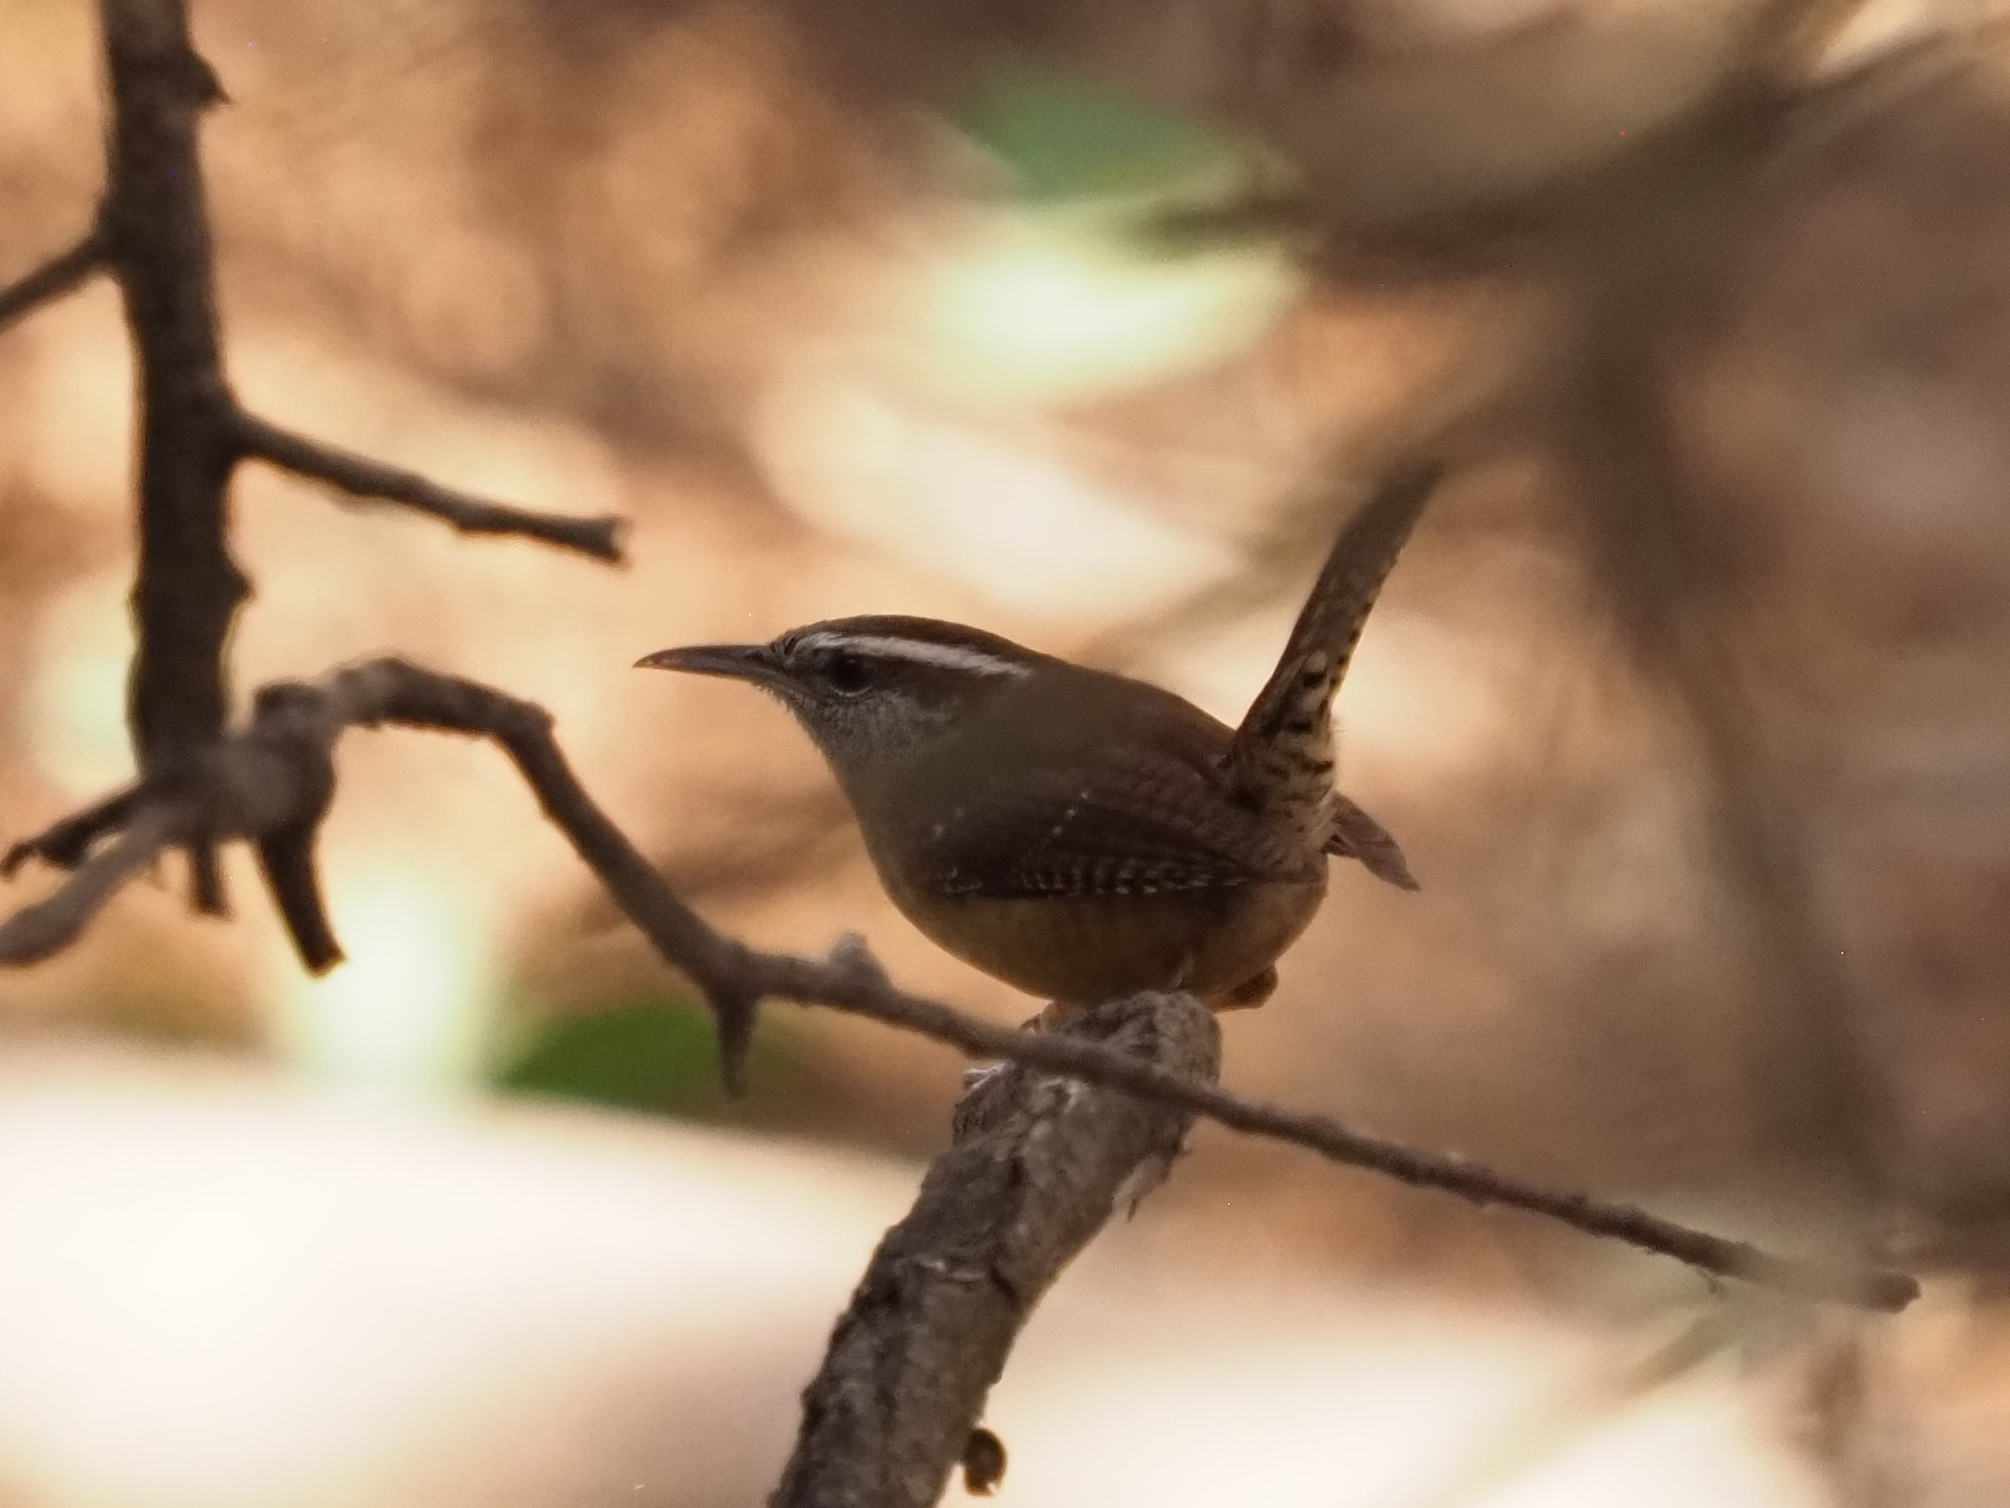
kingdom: Animalia
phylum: Chordata
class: Aves
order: Passeriformes
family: Troglodytidae
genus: Thryothorus
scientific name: Thryothorus ludovicianus
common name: Carolina wren
